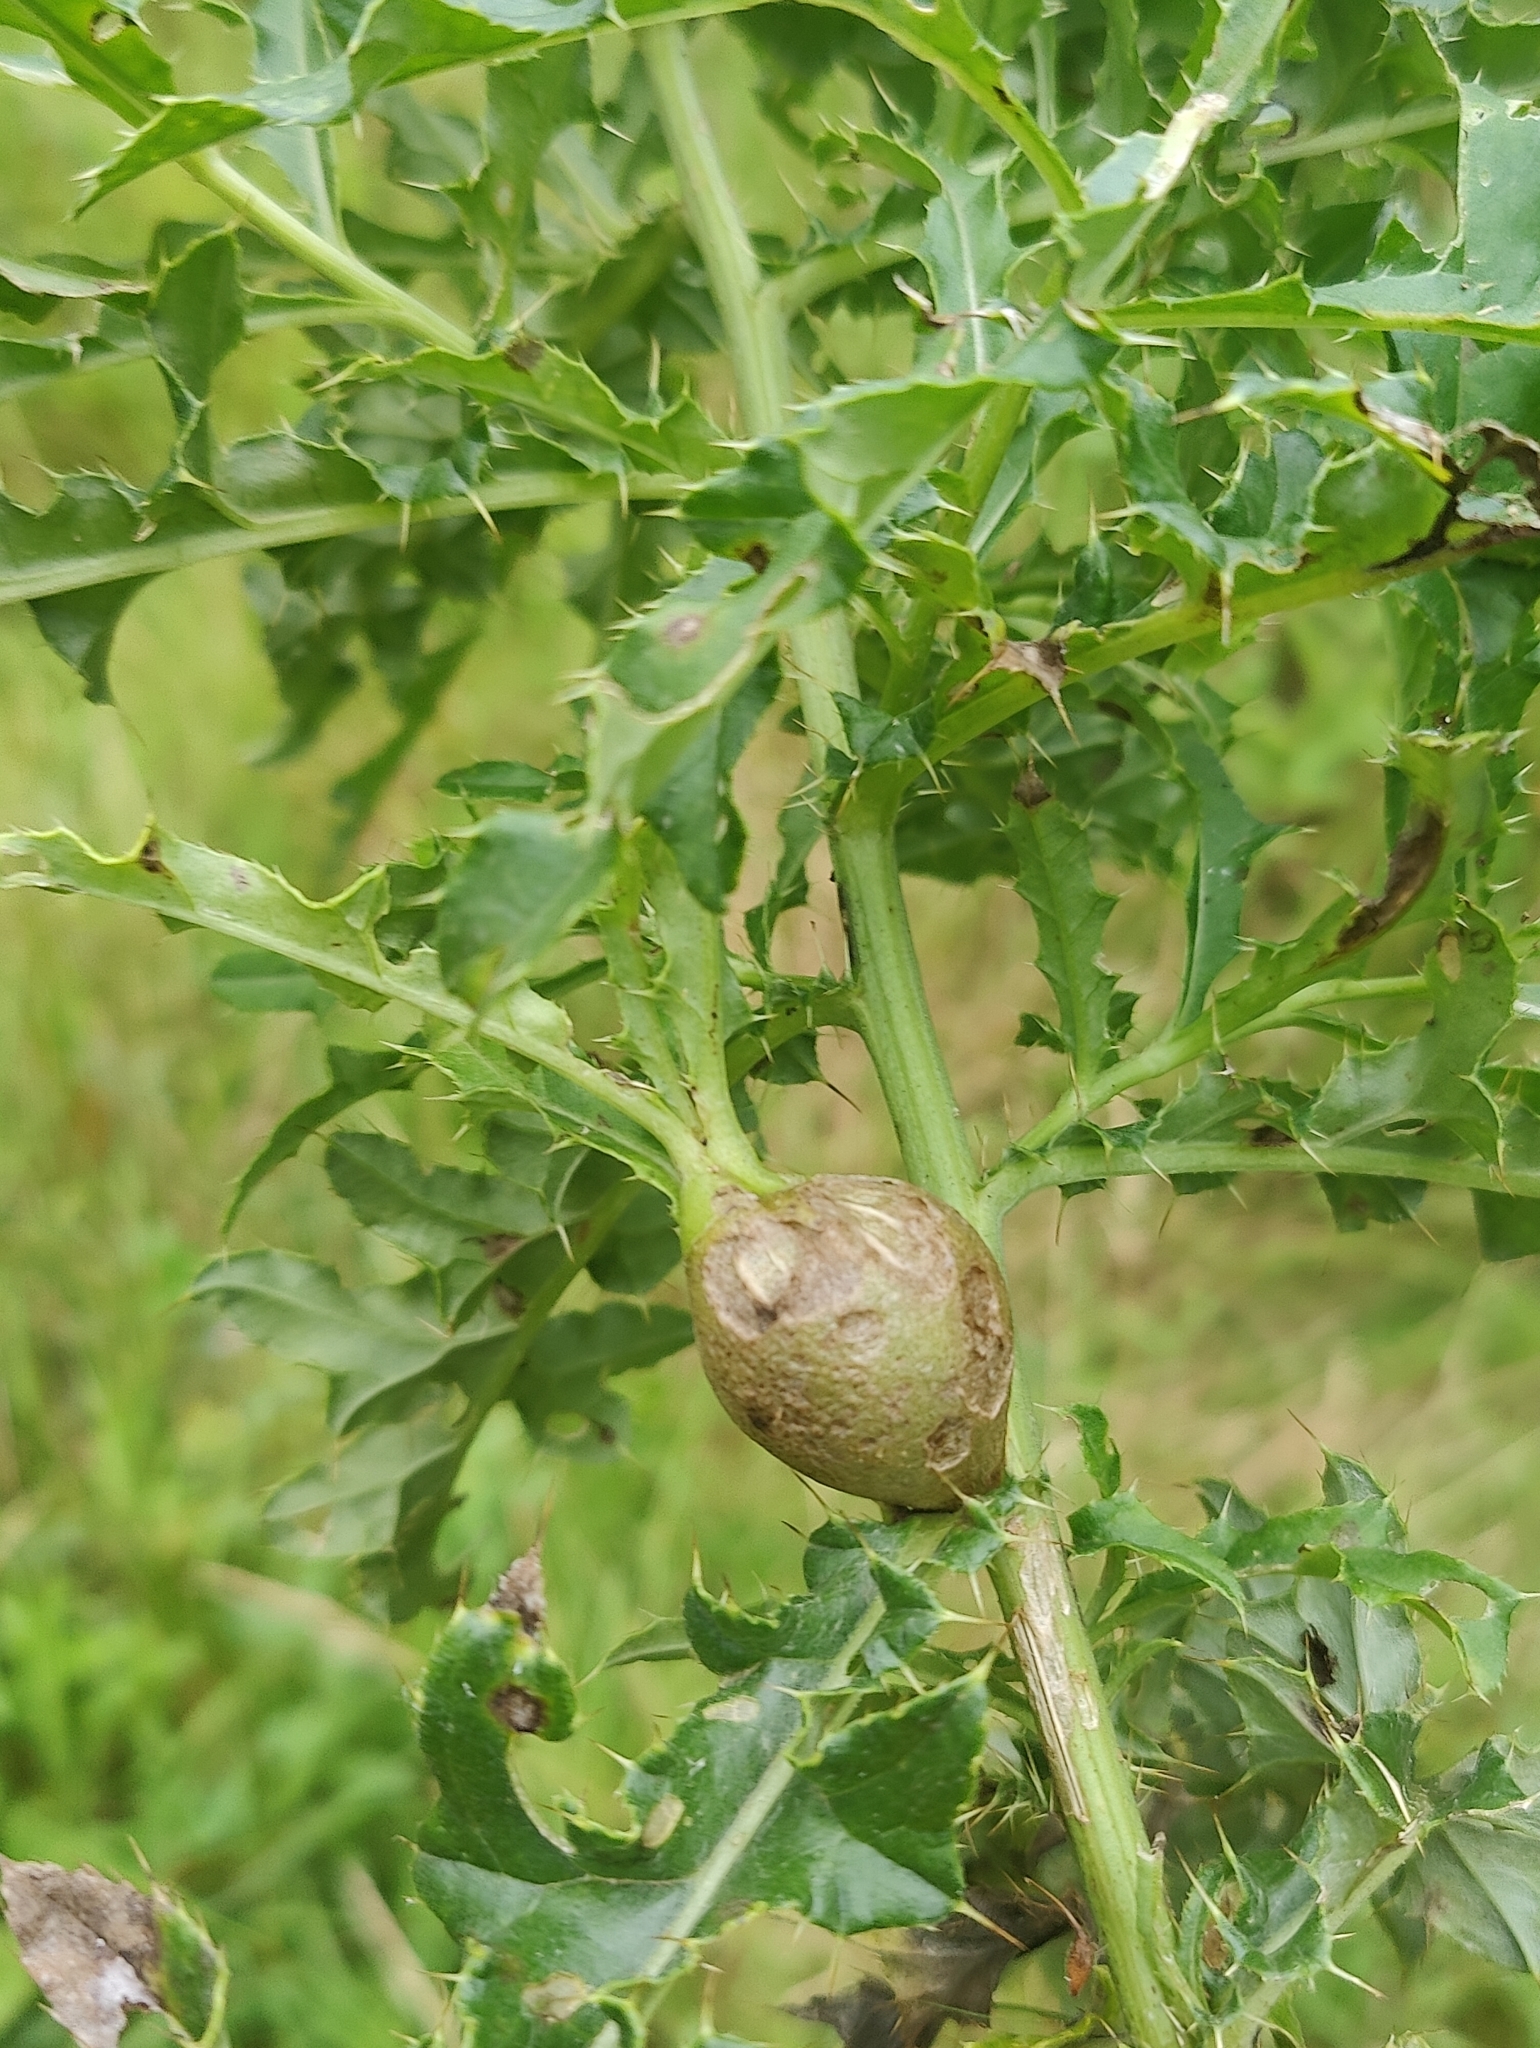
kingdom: Animalia
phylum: Arthropoda
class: Insecta
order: Diptera
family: Tephritidae
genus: Urophora
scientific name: Urophora cardui
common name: Fruit fly
